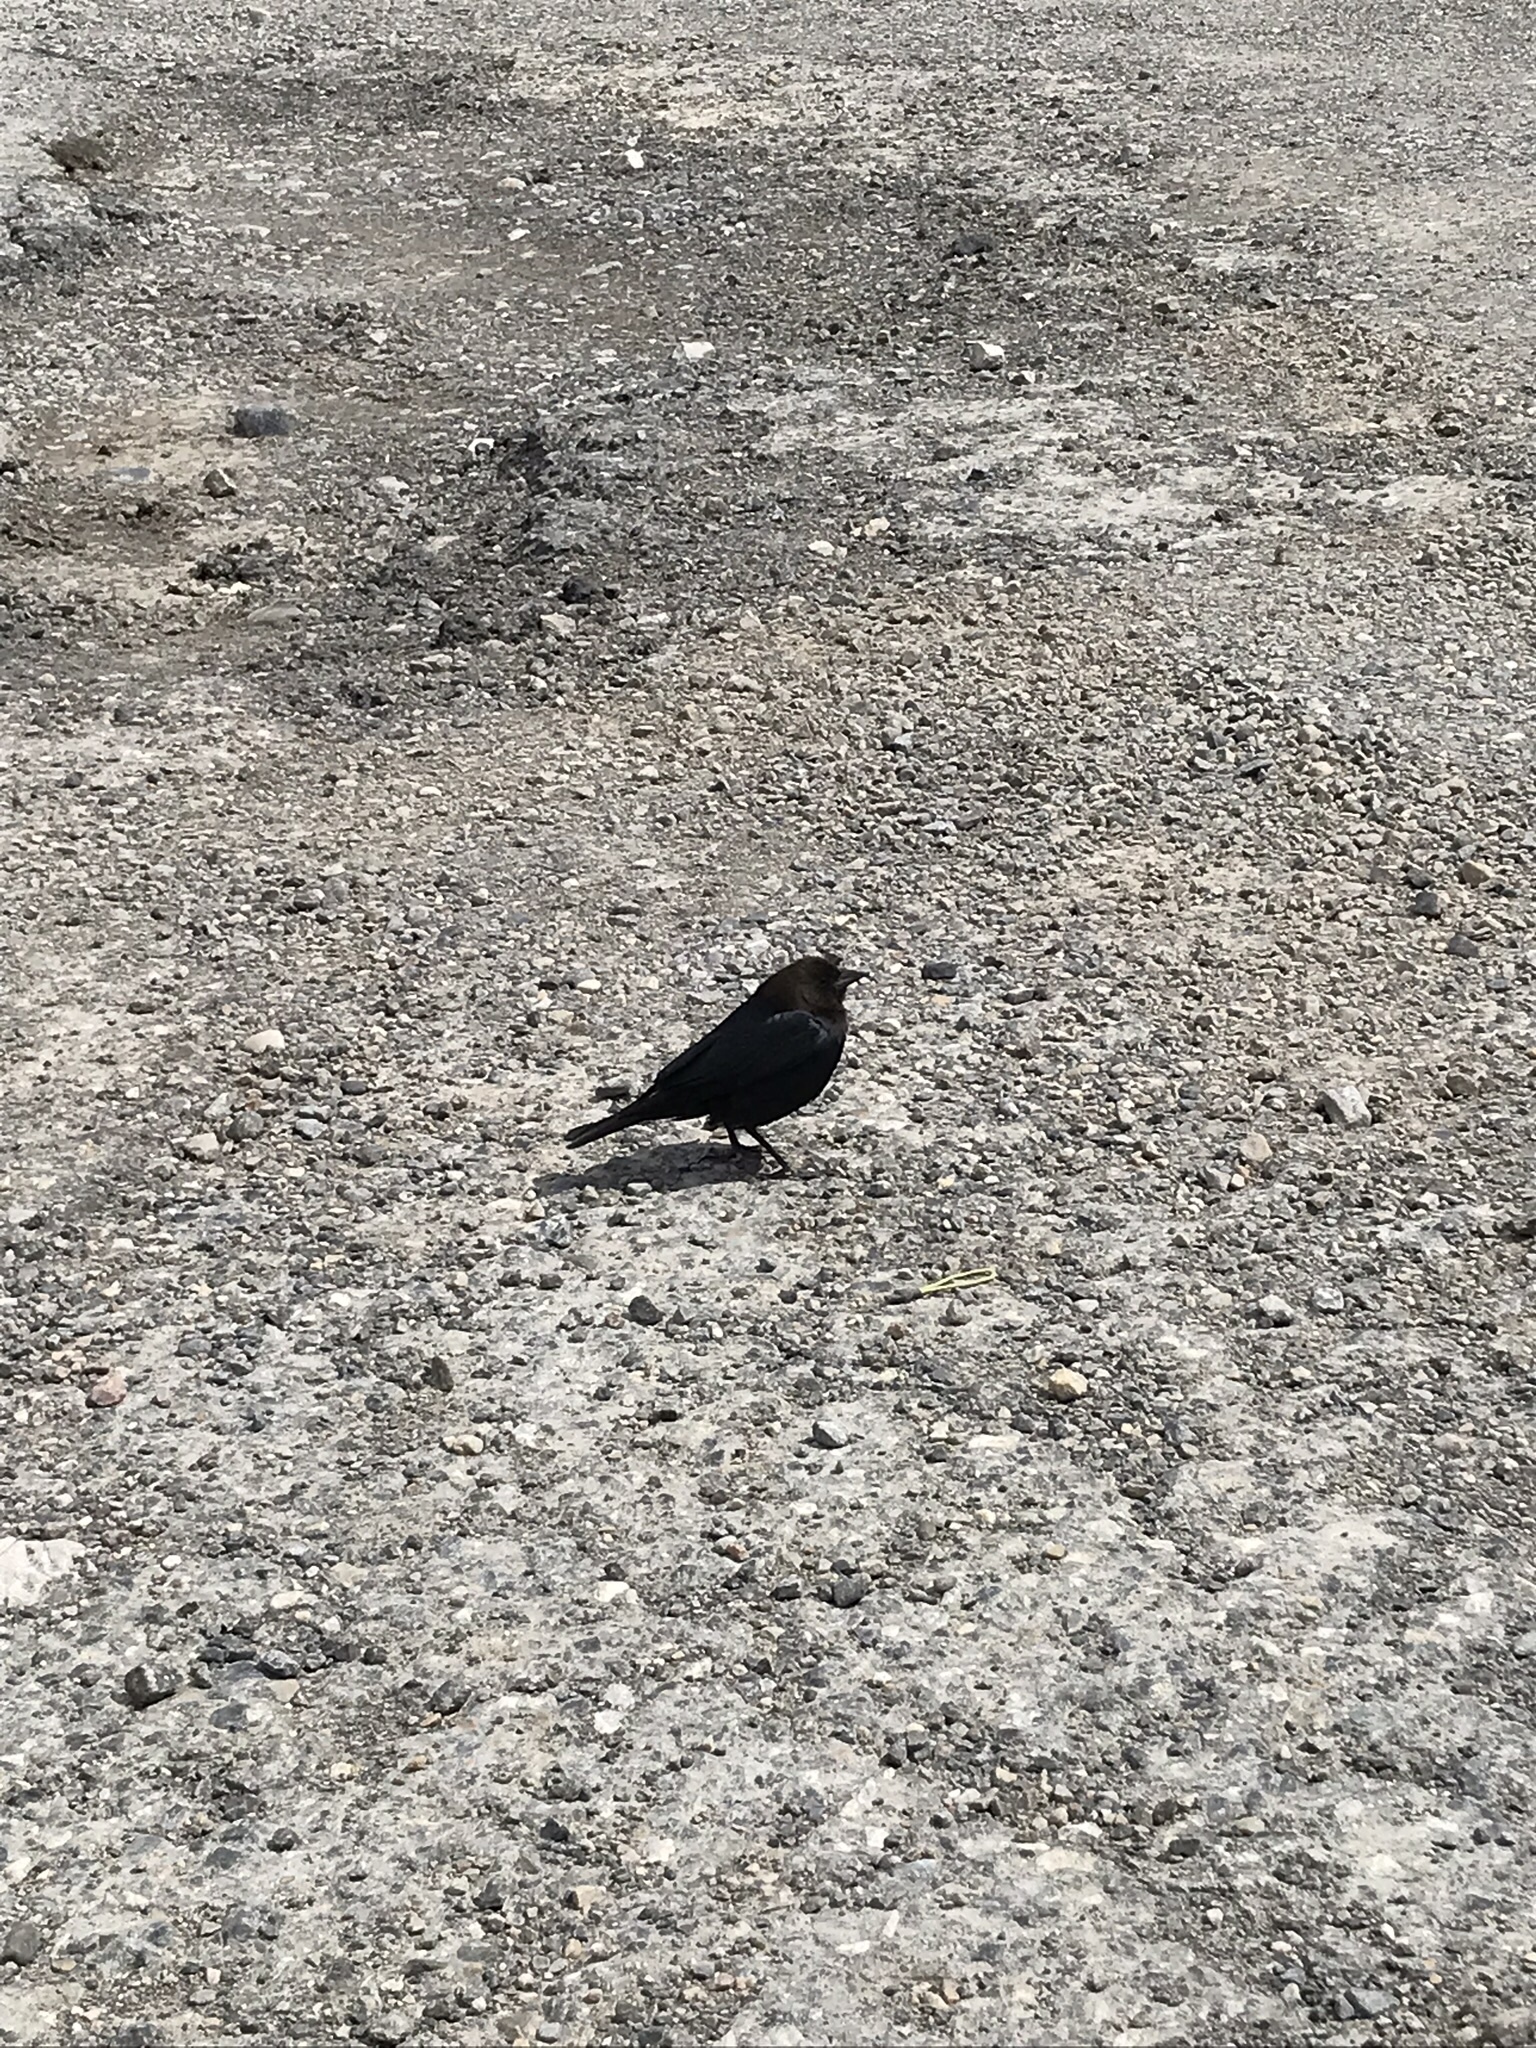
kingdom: Animalia
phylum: Chordata
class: Aves
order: Passeriformes
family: Icteridae
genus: Molothrus
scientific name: Molothrus ater
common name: Brown-headed cowbird
